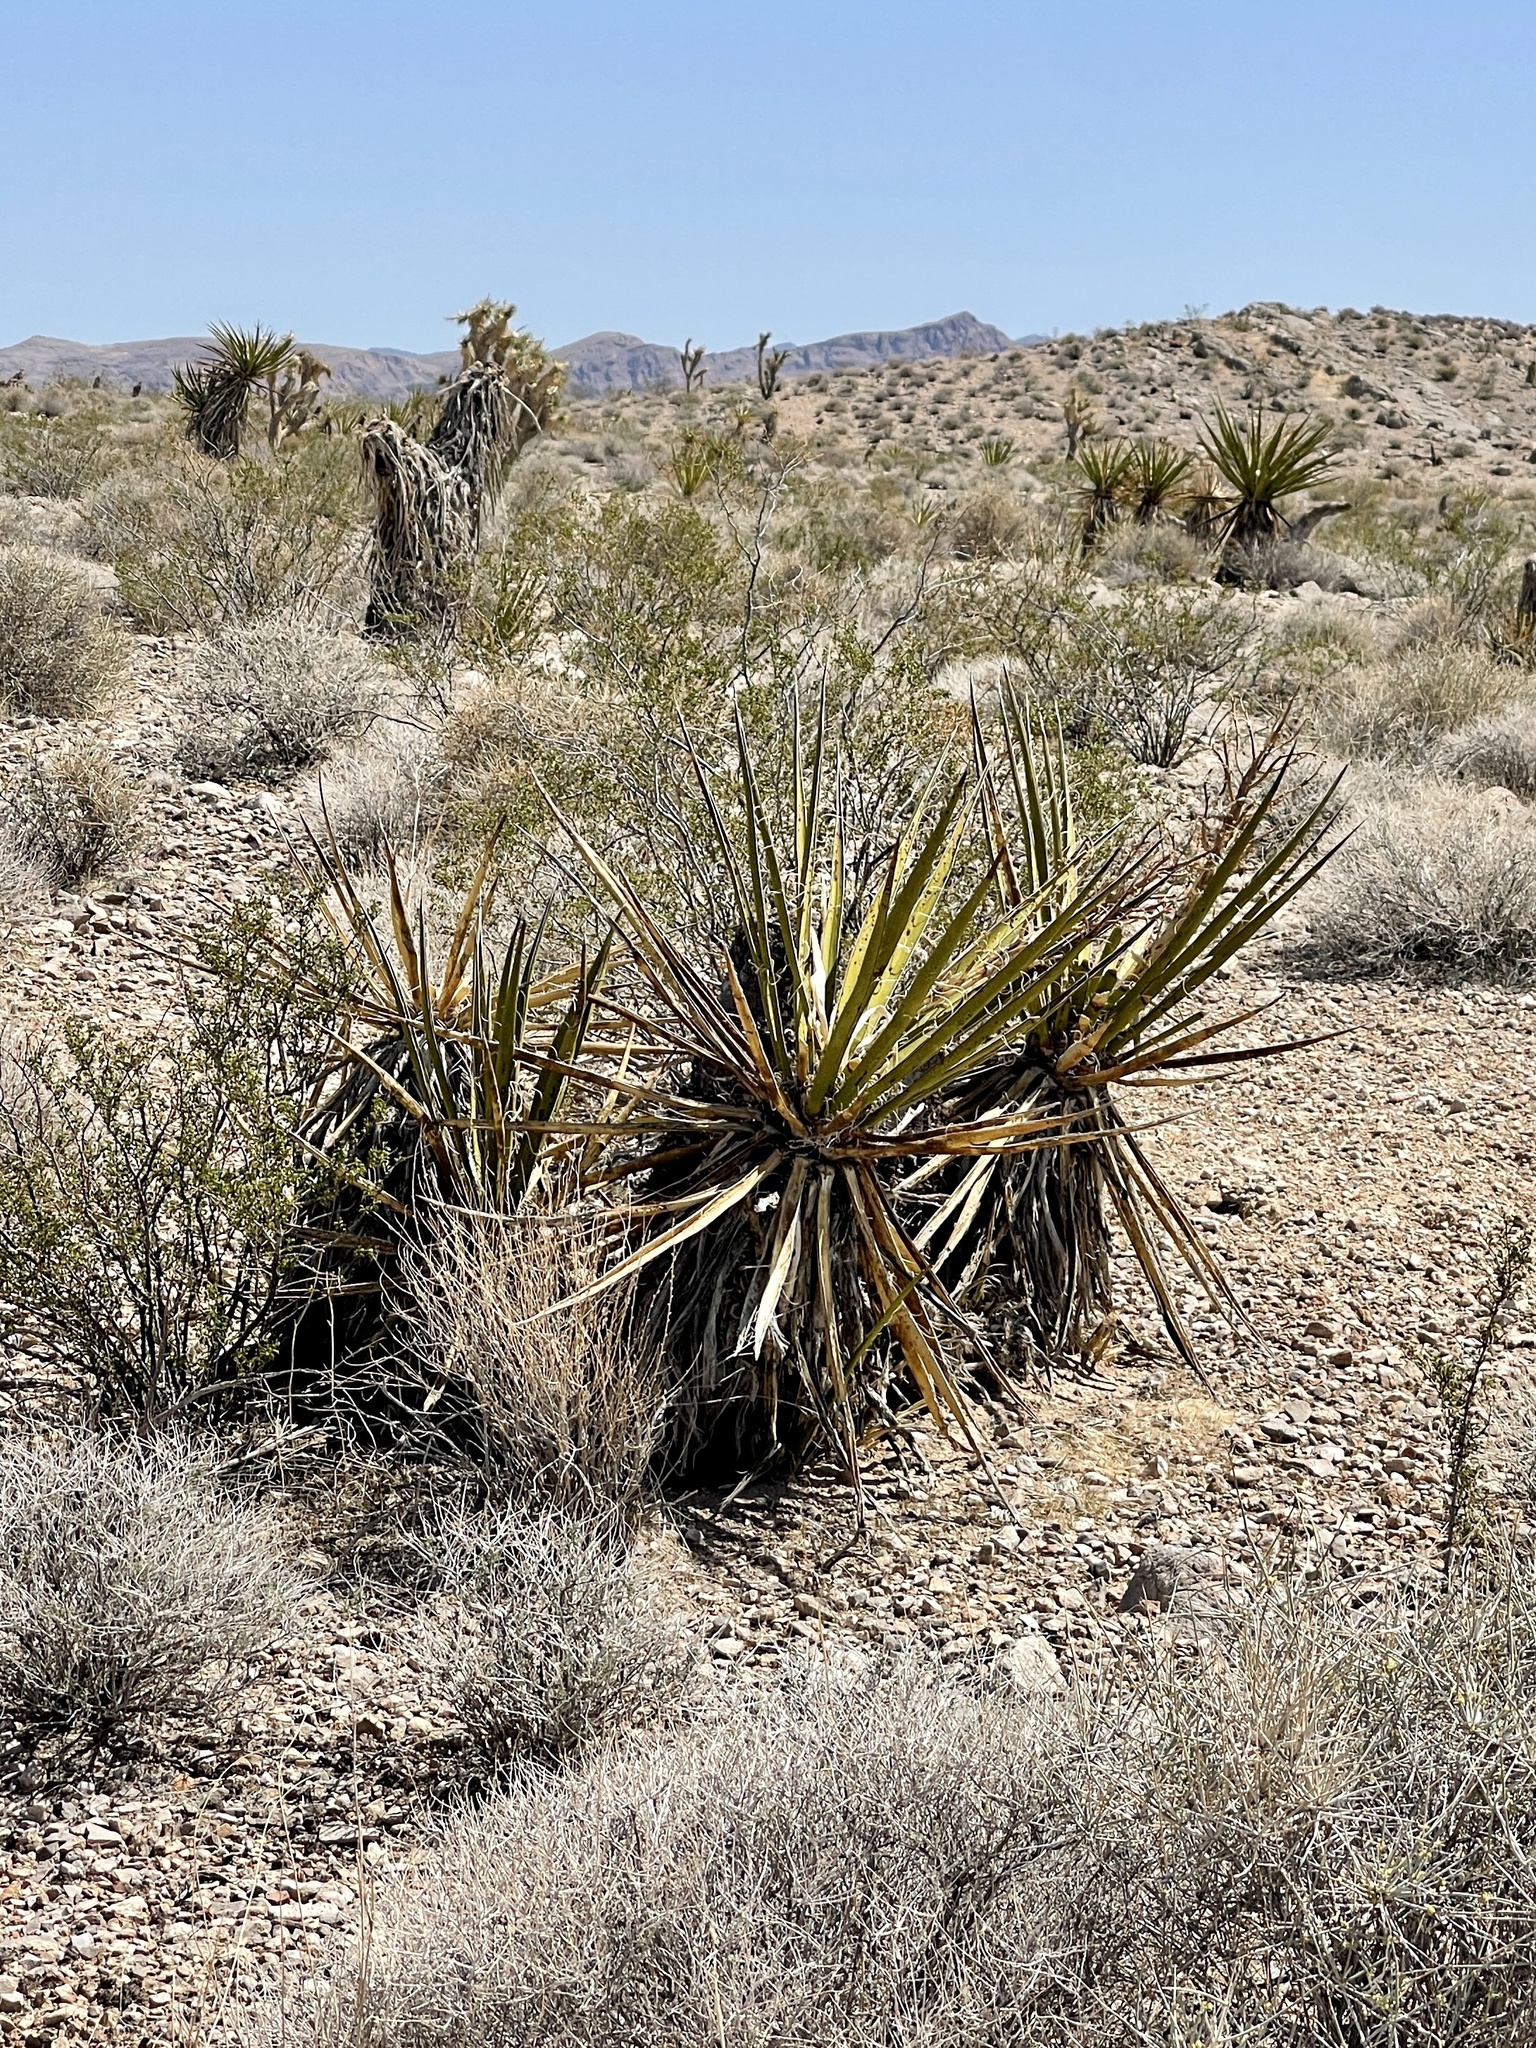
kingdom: Plantae
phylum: Tracheophyta
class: Liliopsida
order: Asparagales
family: Asparagaceae
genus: Yucca
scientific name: Yucca schidigera
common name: Mojave yucca
